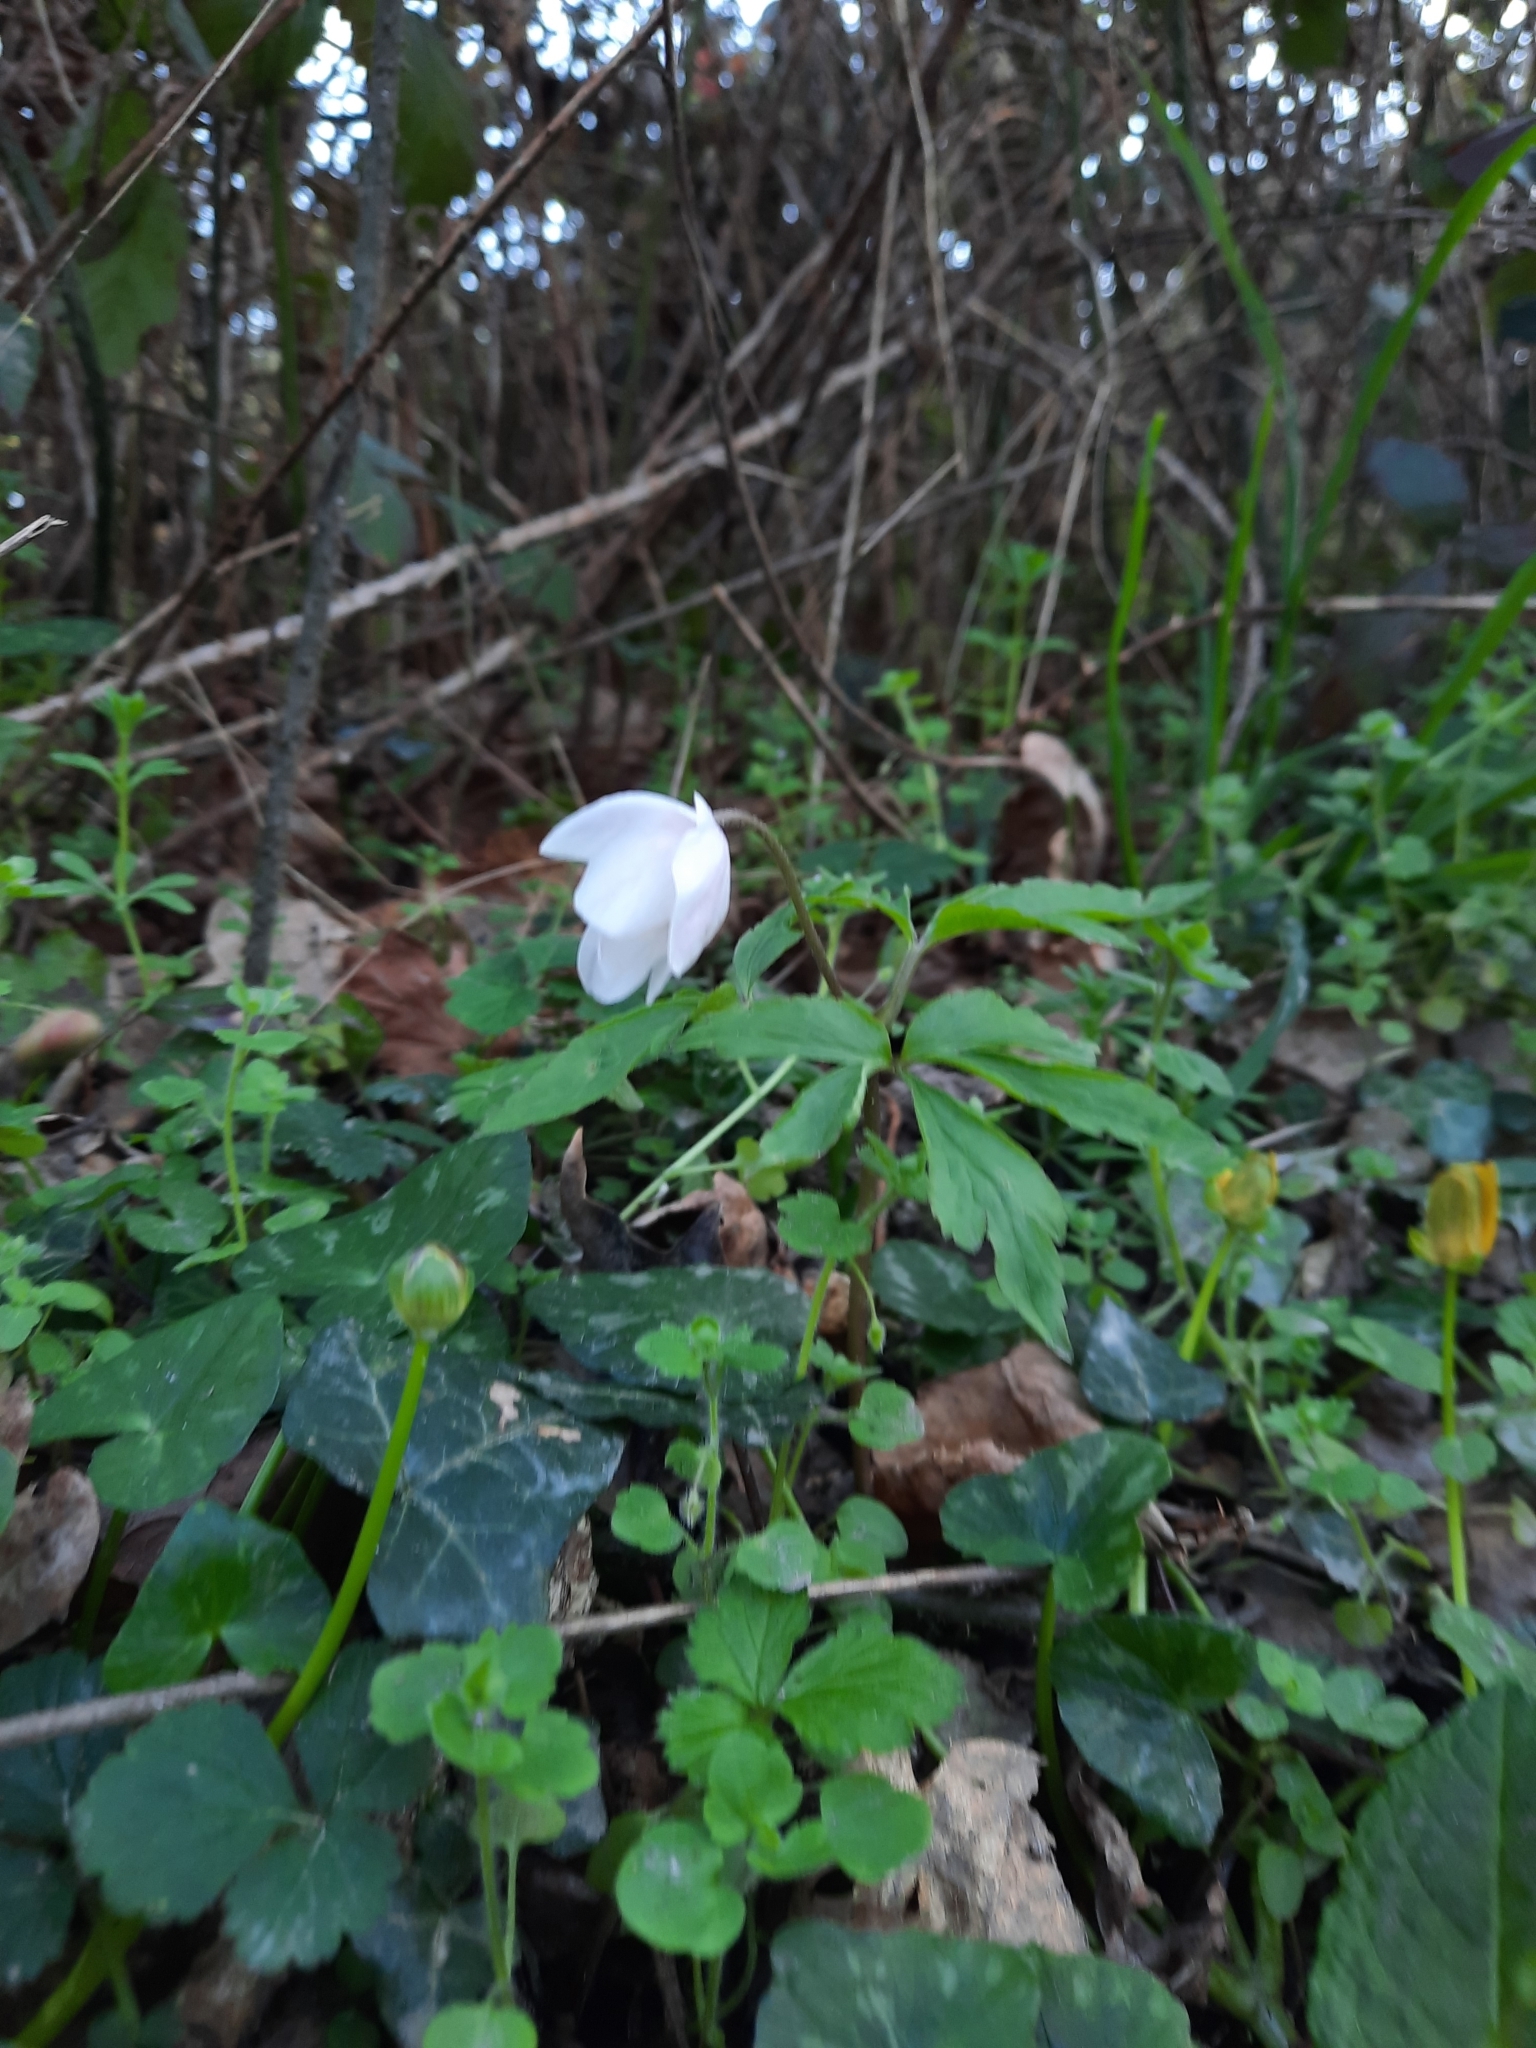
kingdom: Plantae
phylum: Tracheophyta
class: Magnoliopsida
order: Ranunculales
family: Ranunculaceae
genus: Anemone
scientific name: Anemone nemorosa
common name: Wood anemone
